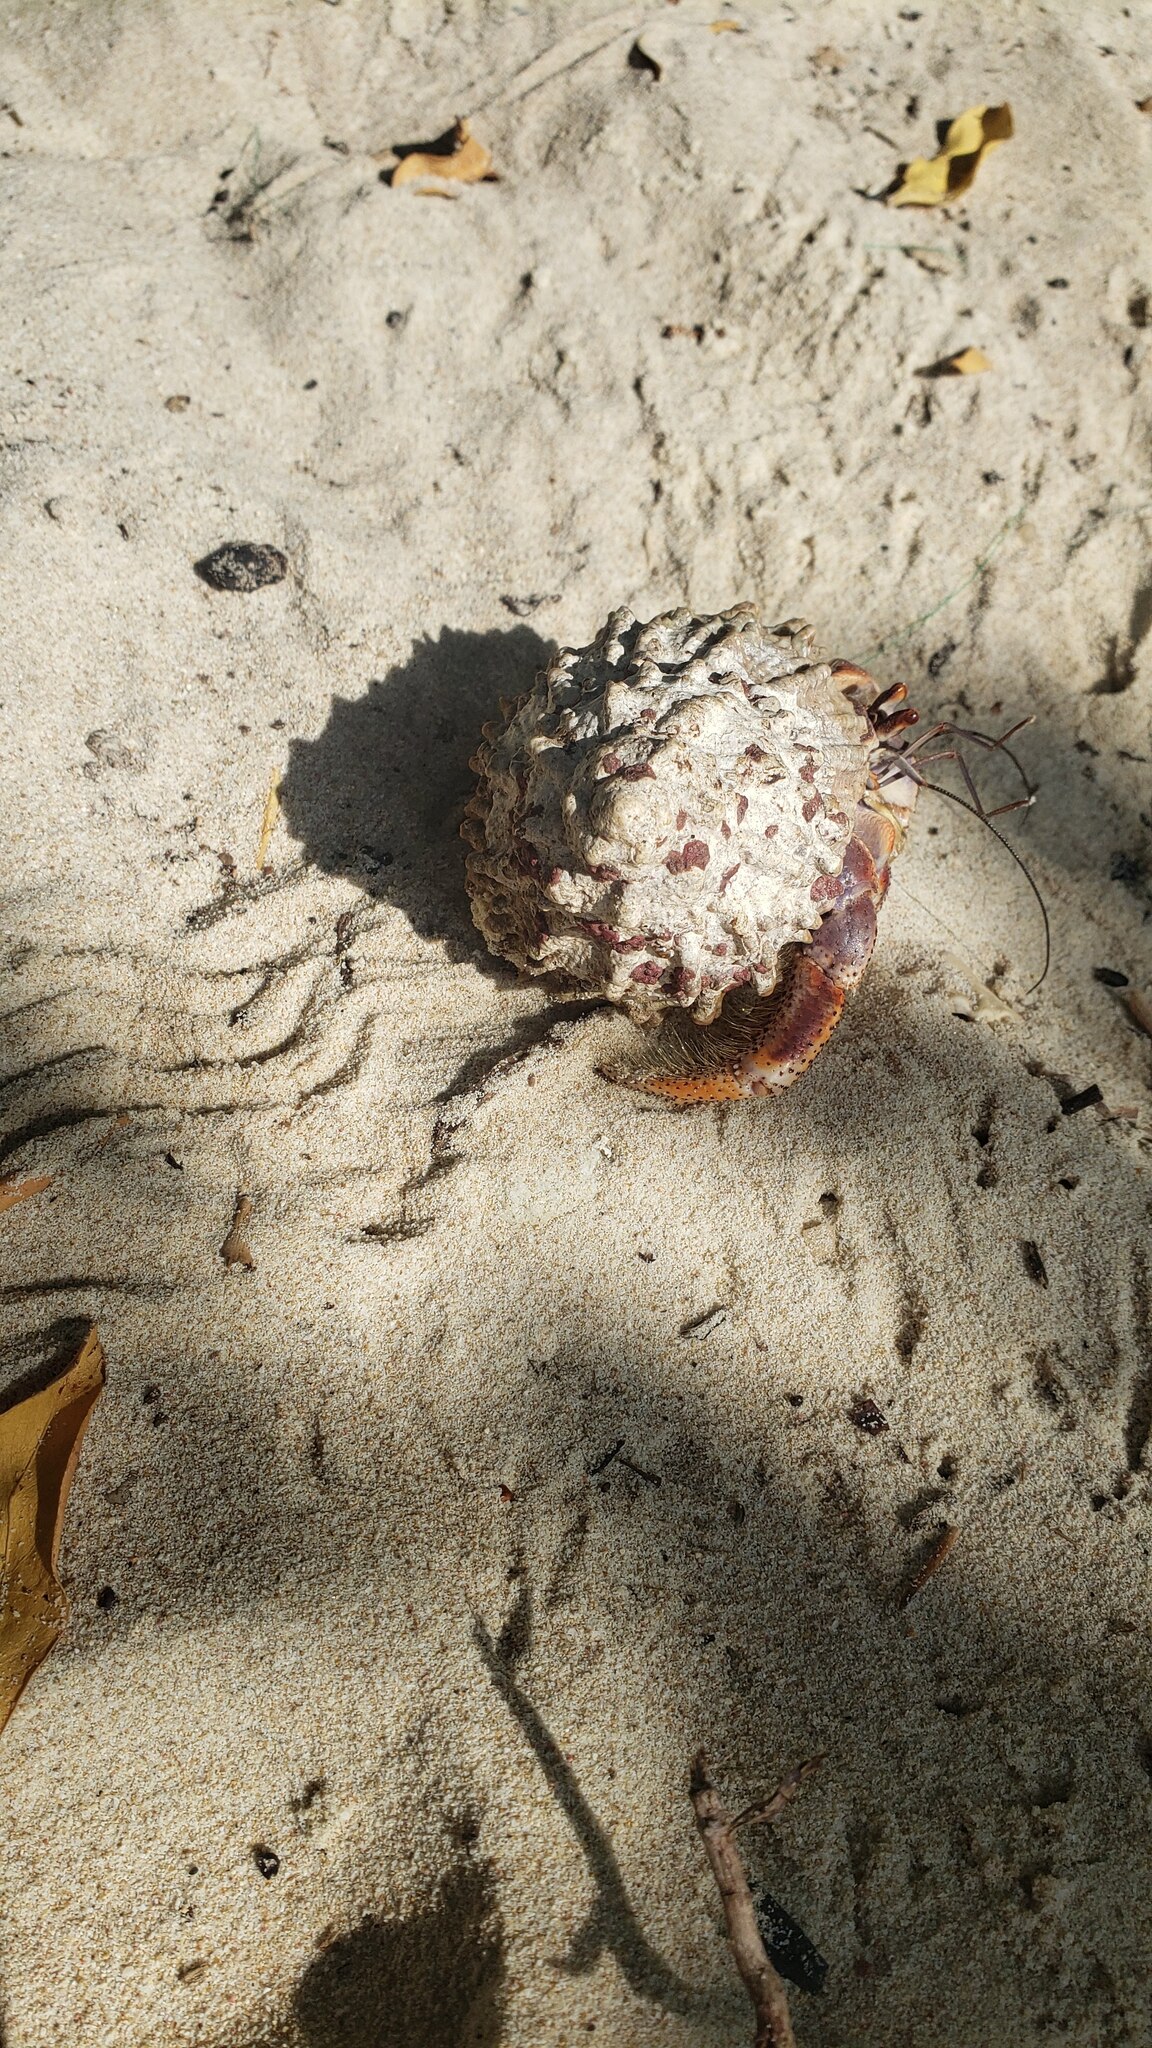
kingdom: Animalia
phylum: Arthropoda
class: Malacostraca
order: Decapoda
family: Coenobitidae
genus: Coenobita
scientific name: Coenobita clypeatus
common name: Caribbean hermit crab
